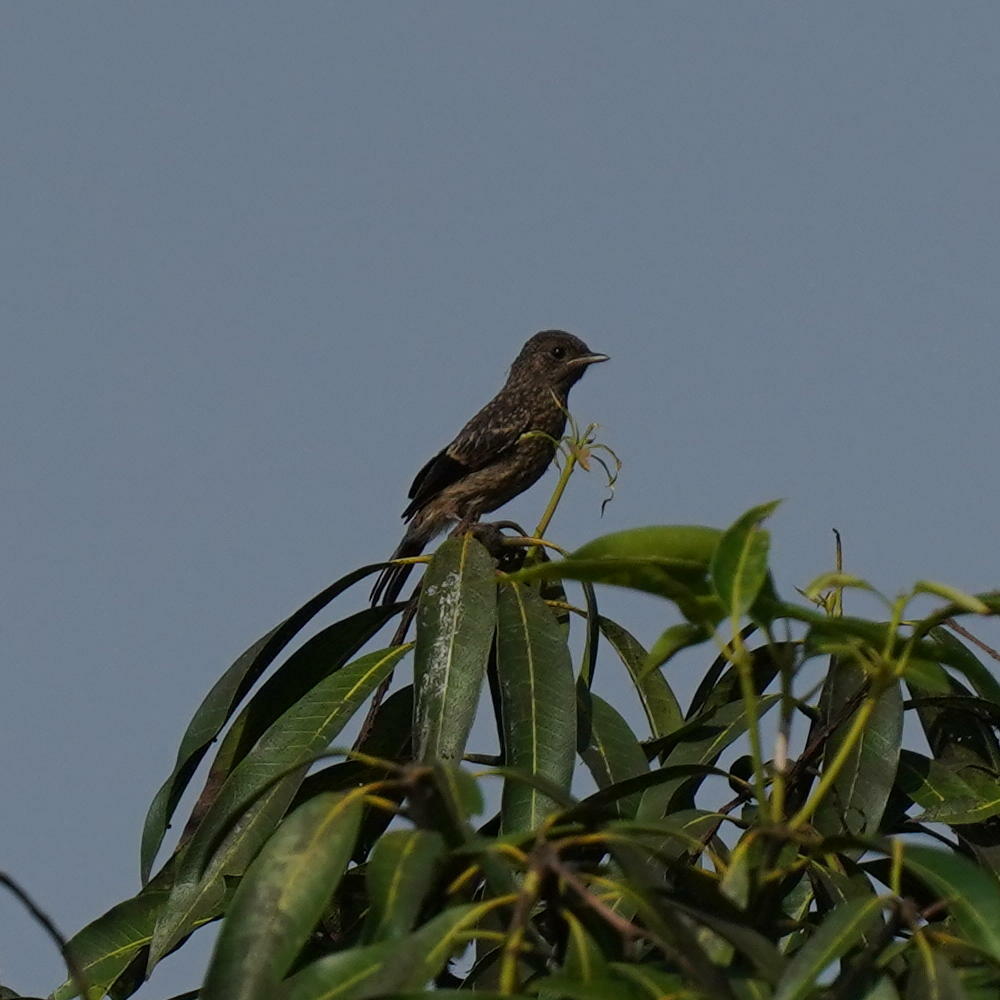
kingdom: Animalia
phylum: Chordata
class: Aves
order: Passeriformes
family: Muscicapidae
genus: Saxicola
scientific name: Saxicola caprata
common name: Pied bush chat
